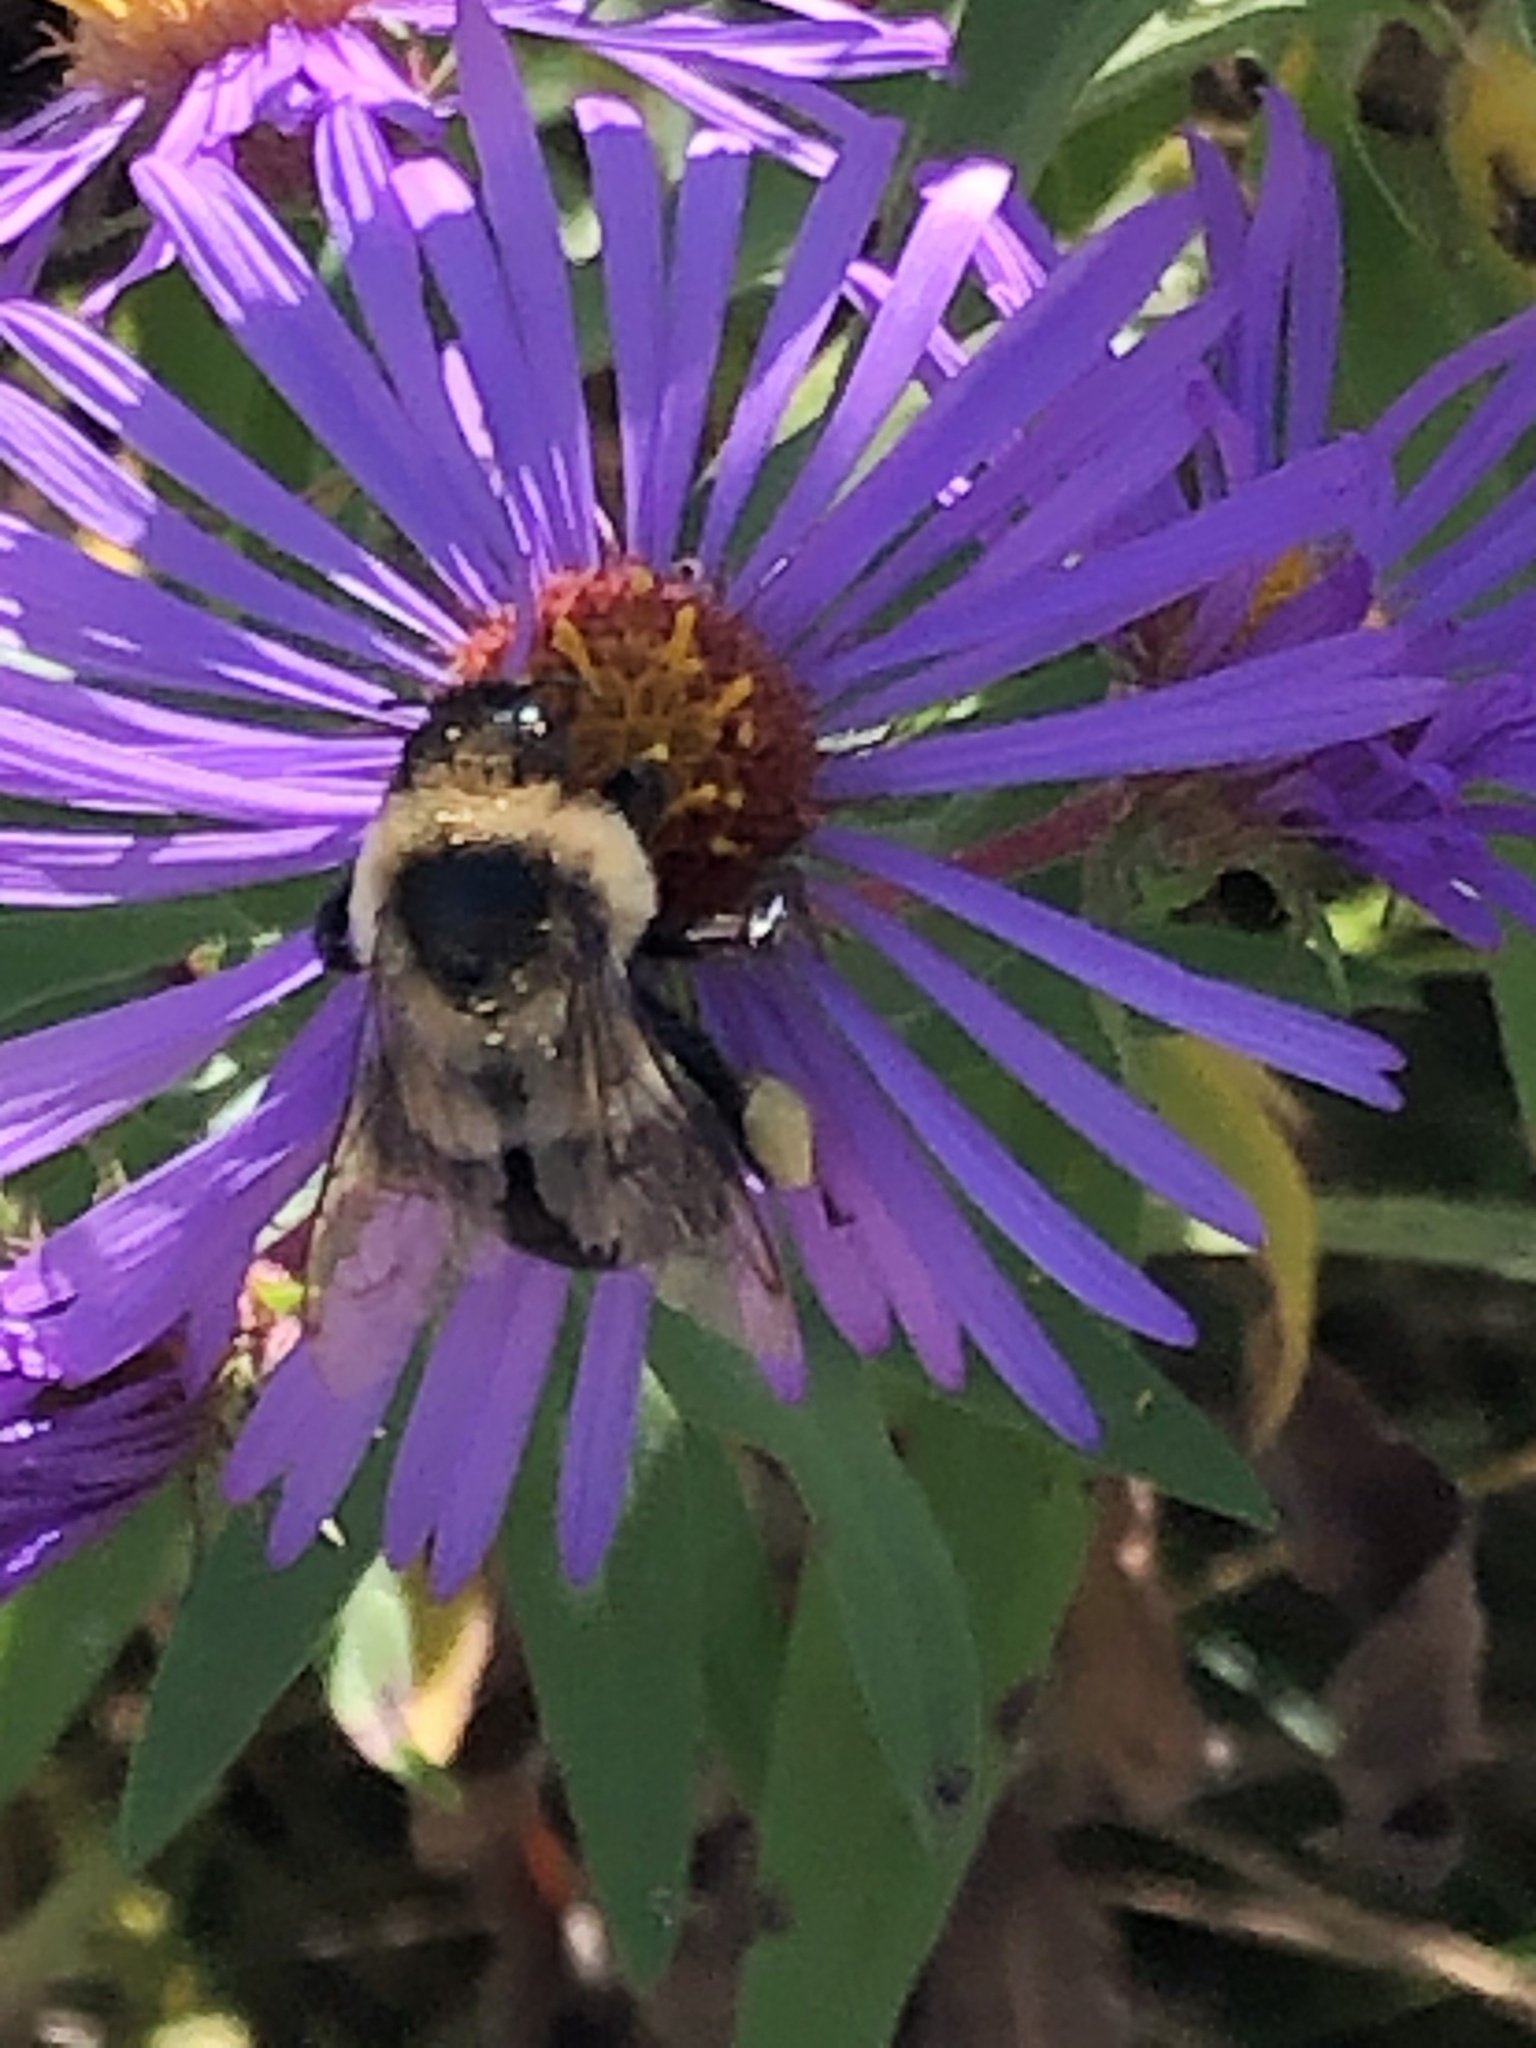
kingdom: Animalia
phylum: Arthropoda
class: Insecta
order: Hymenoptera
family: Apidae
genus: Bombus
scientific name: Bombus impatiens
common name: Common eastern bumble bee
